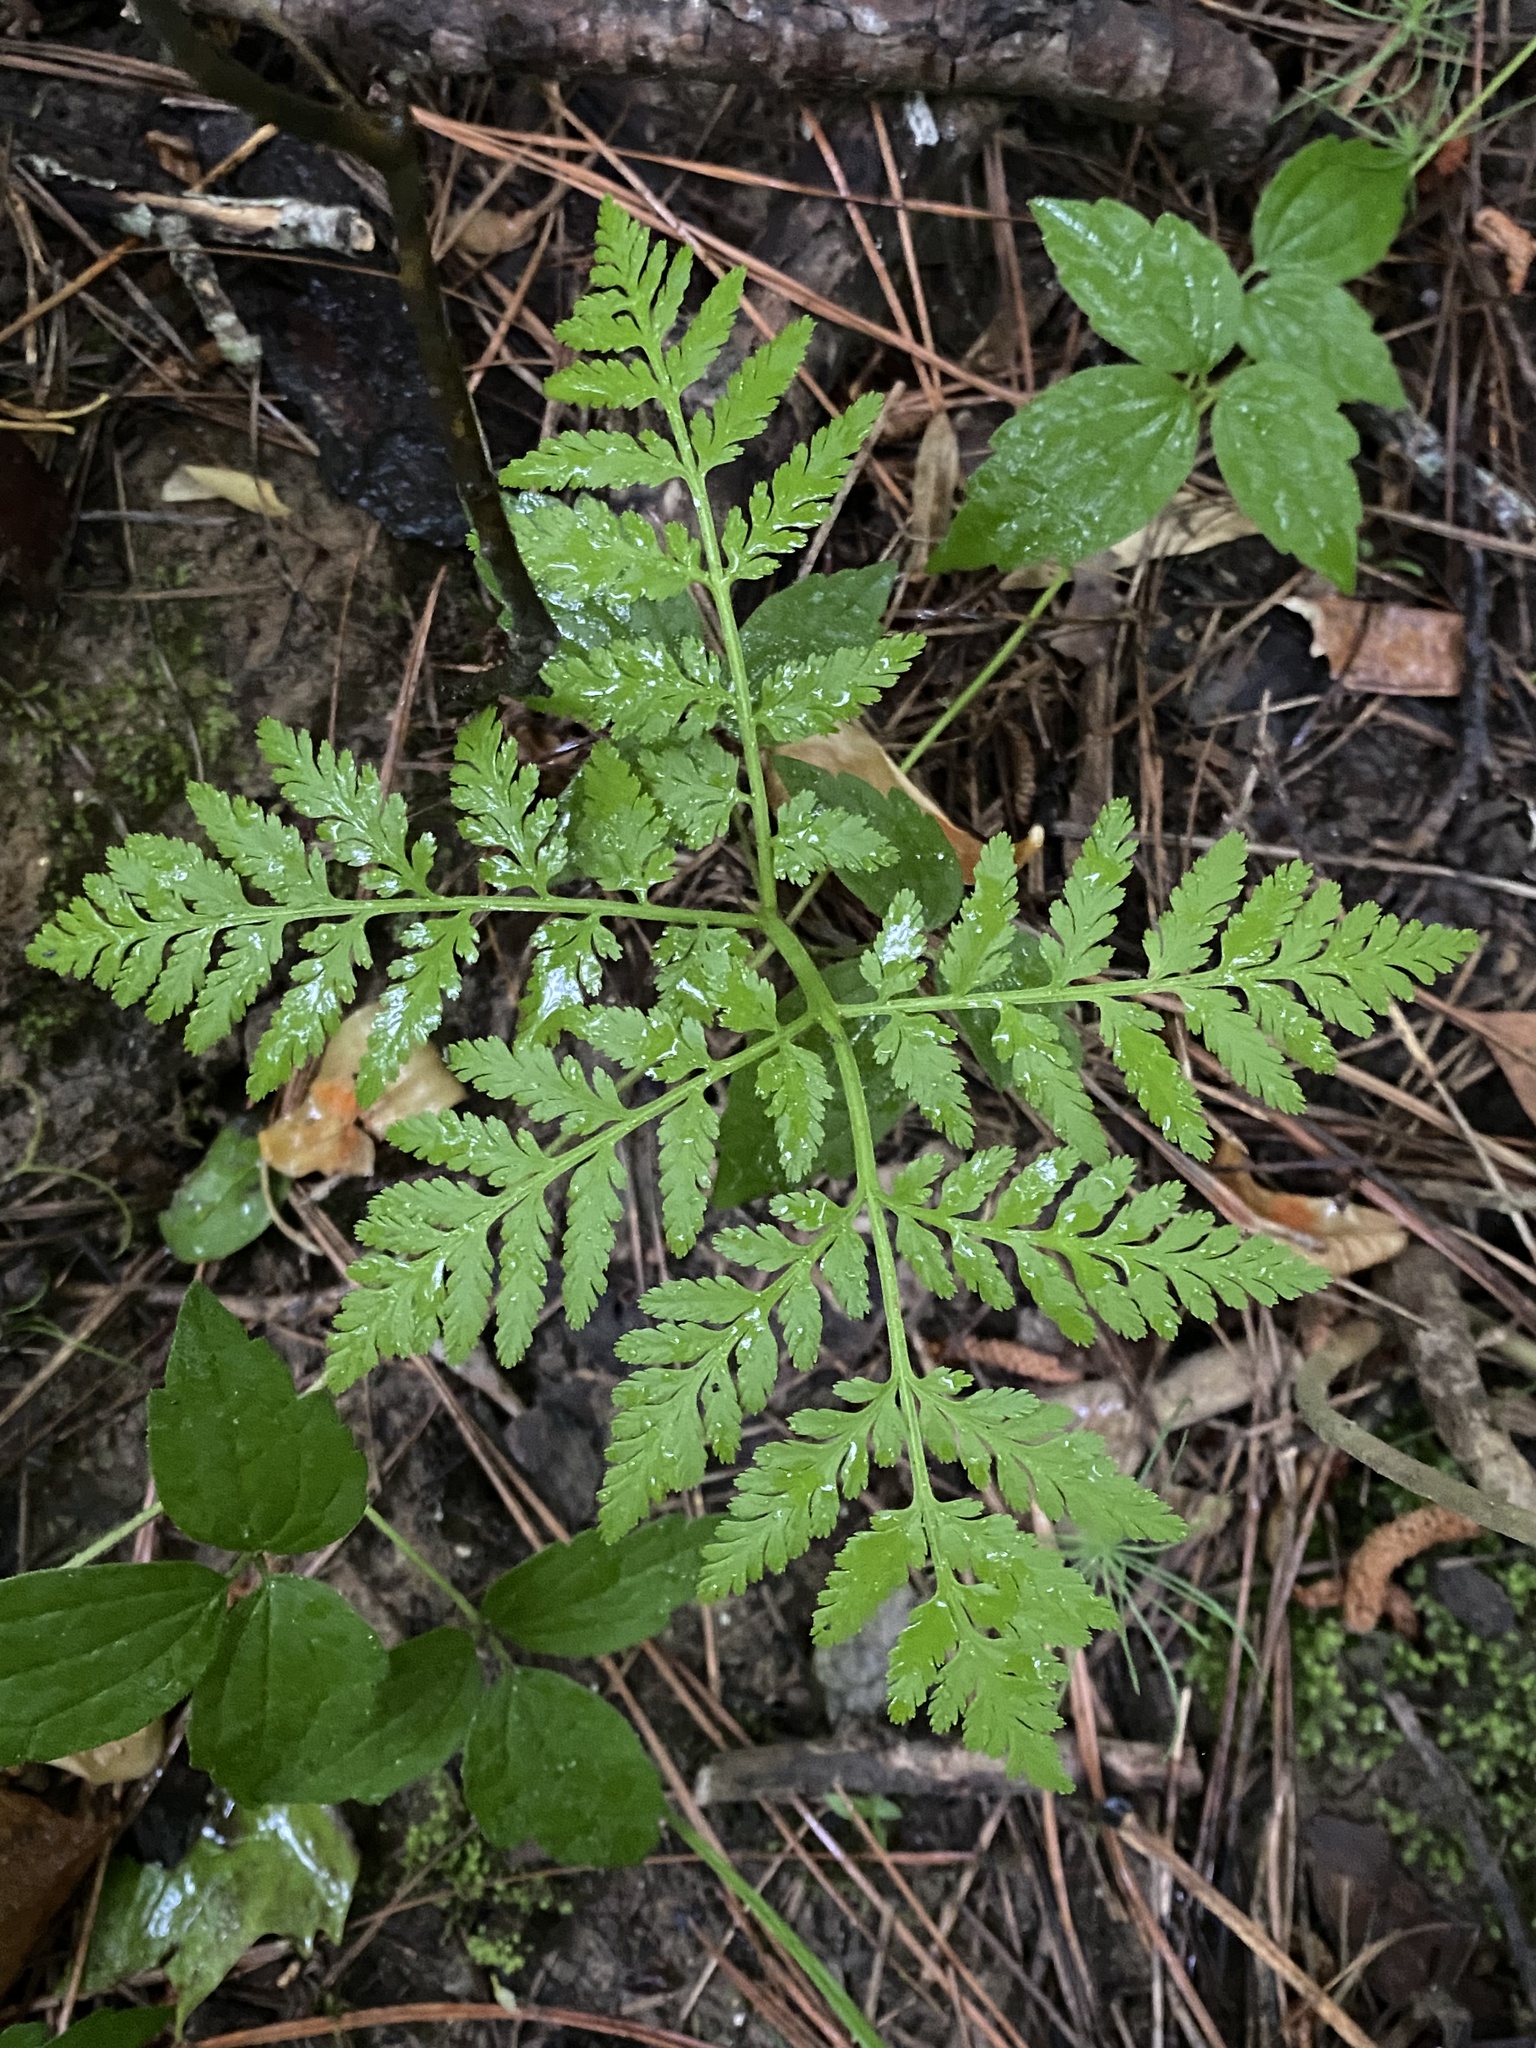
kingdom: Plantae
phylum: Tracheophyta
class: Polypodiopsida
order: Ophioglossales
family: Ophioglossaceae
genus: Botrypus
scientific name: Botrypus virginianus
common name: Common grapefern
